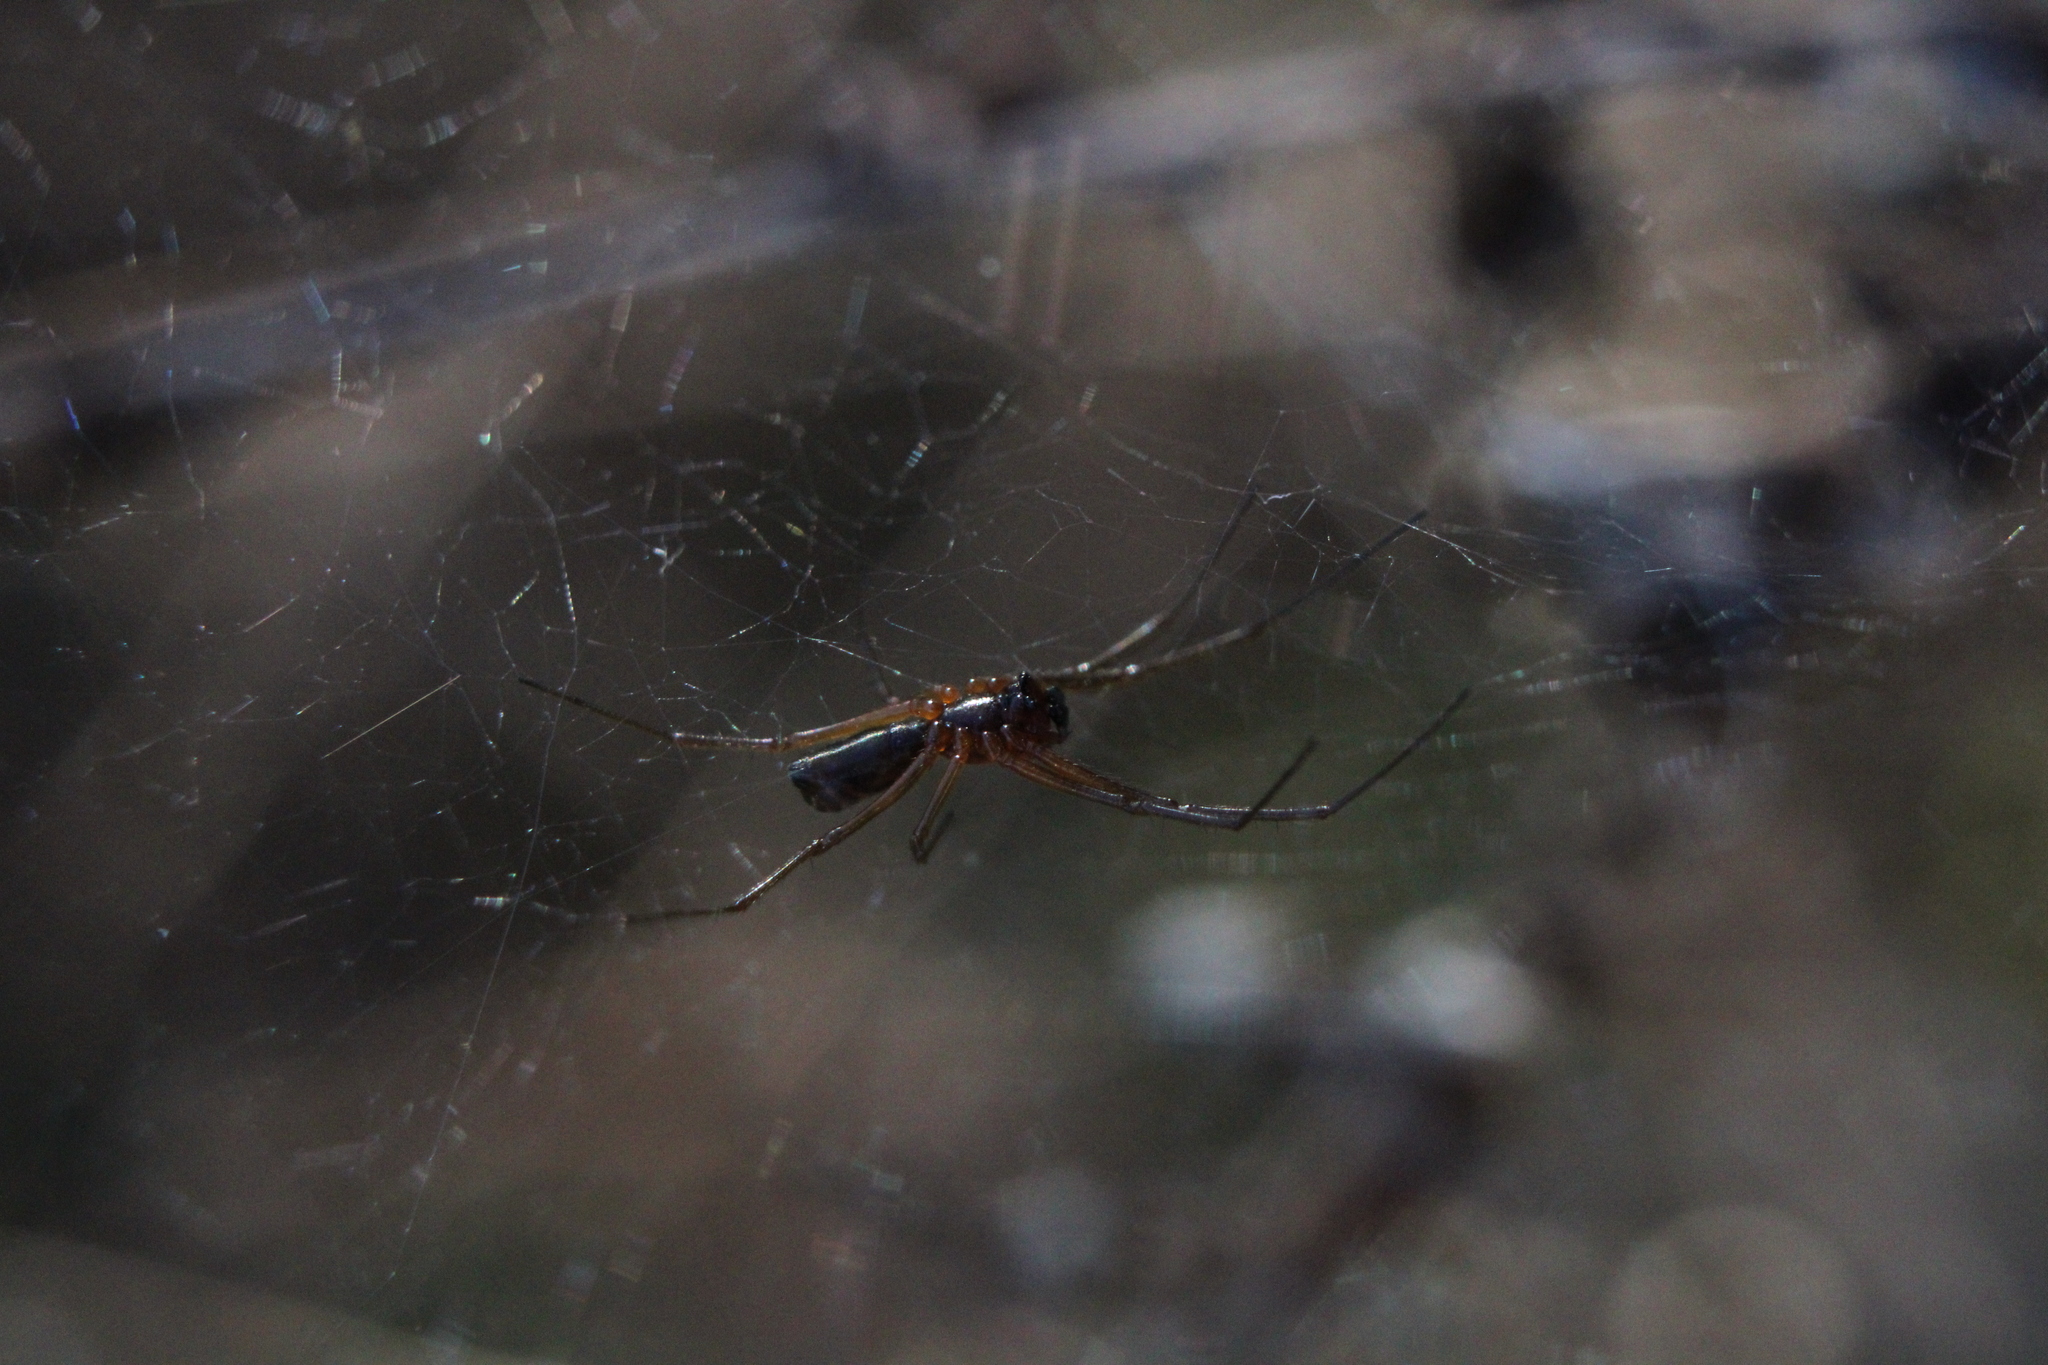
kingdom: Animalia
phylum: Arthropoda
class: Arachnida
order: Araneae
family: Linyphiidae
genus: Frontinella
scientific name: Frontinella pyramitela
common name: Bowl-and-doily spider
